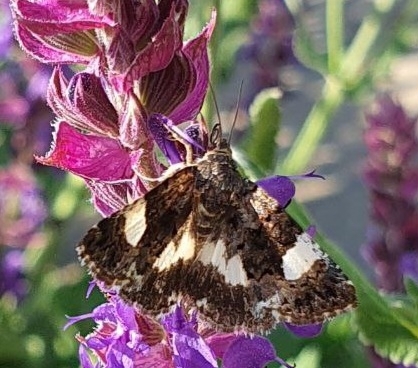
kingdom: Animalia
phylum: Arthropoda
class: Insecta
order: Lepidoptera
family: Erebidae
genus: Tyta
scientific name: Tyta luctuosa
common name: Four-spotted
